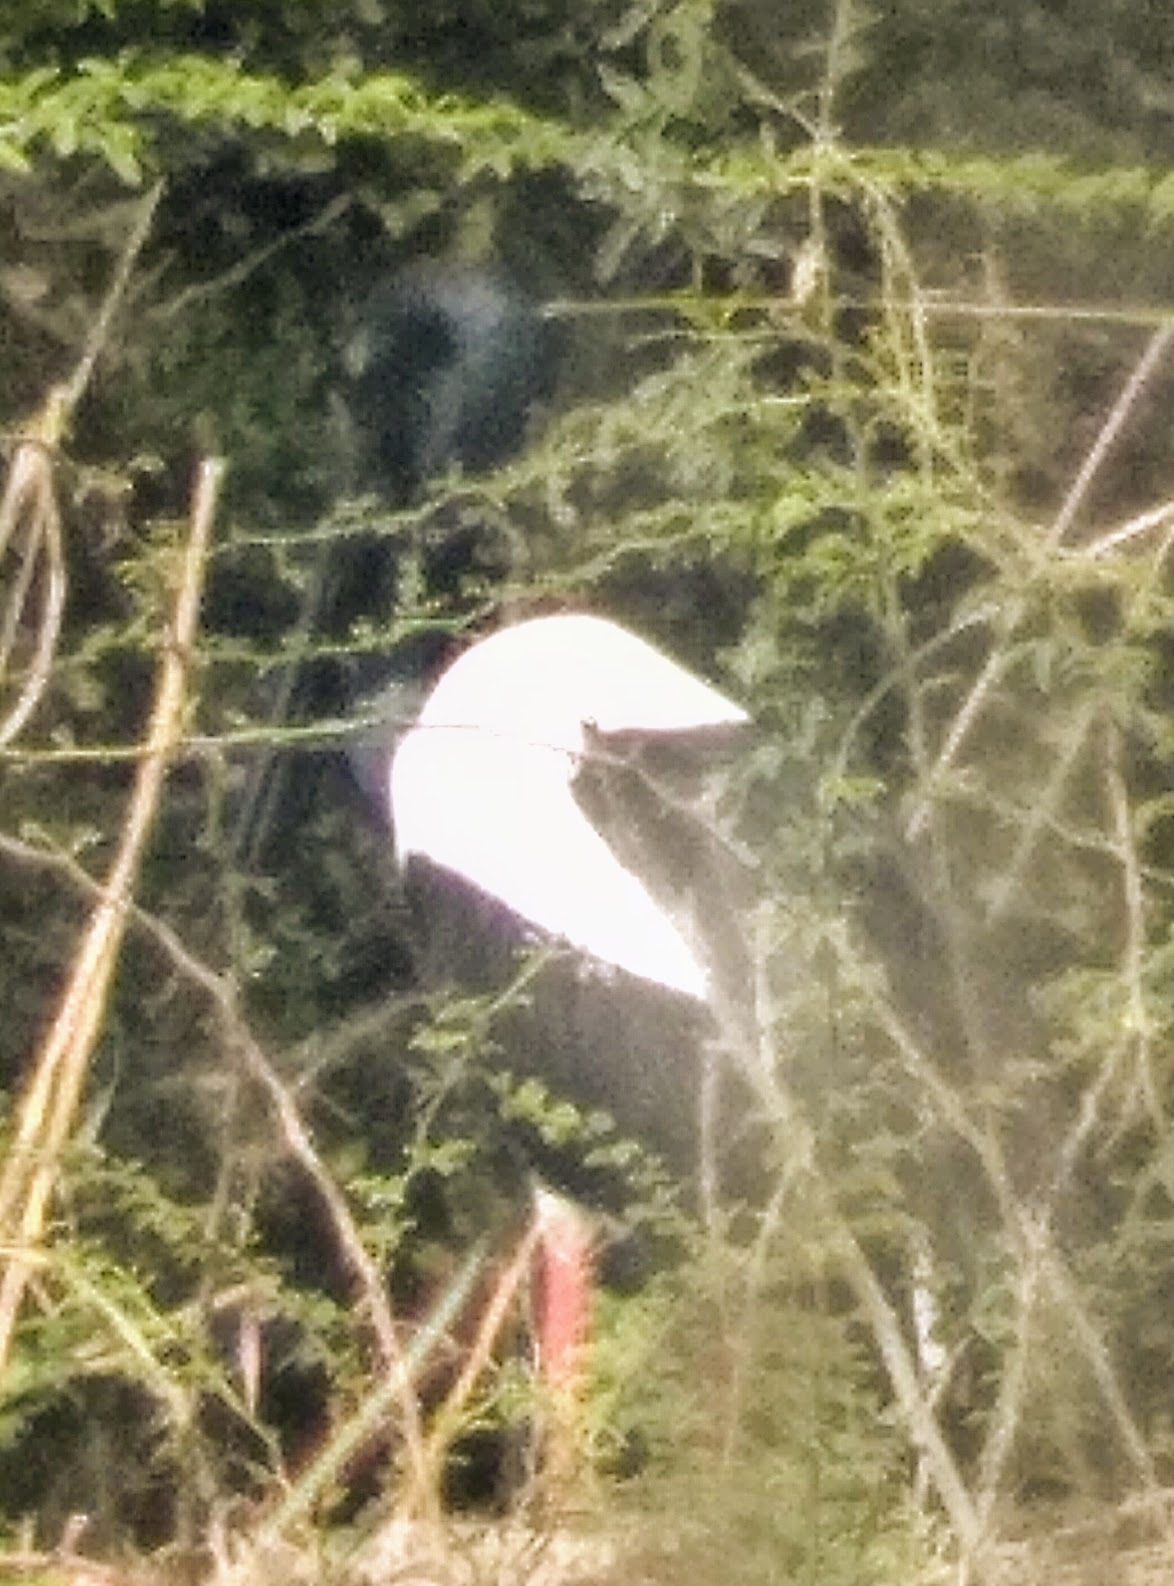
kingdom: Animalia
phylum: Chordata
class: Aves
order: Ciconiiformes
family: Ciconiidae
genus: Ephippiorhynchus
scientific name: Ephippiorhynchus asiaticus
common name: Black-necked stork
